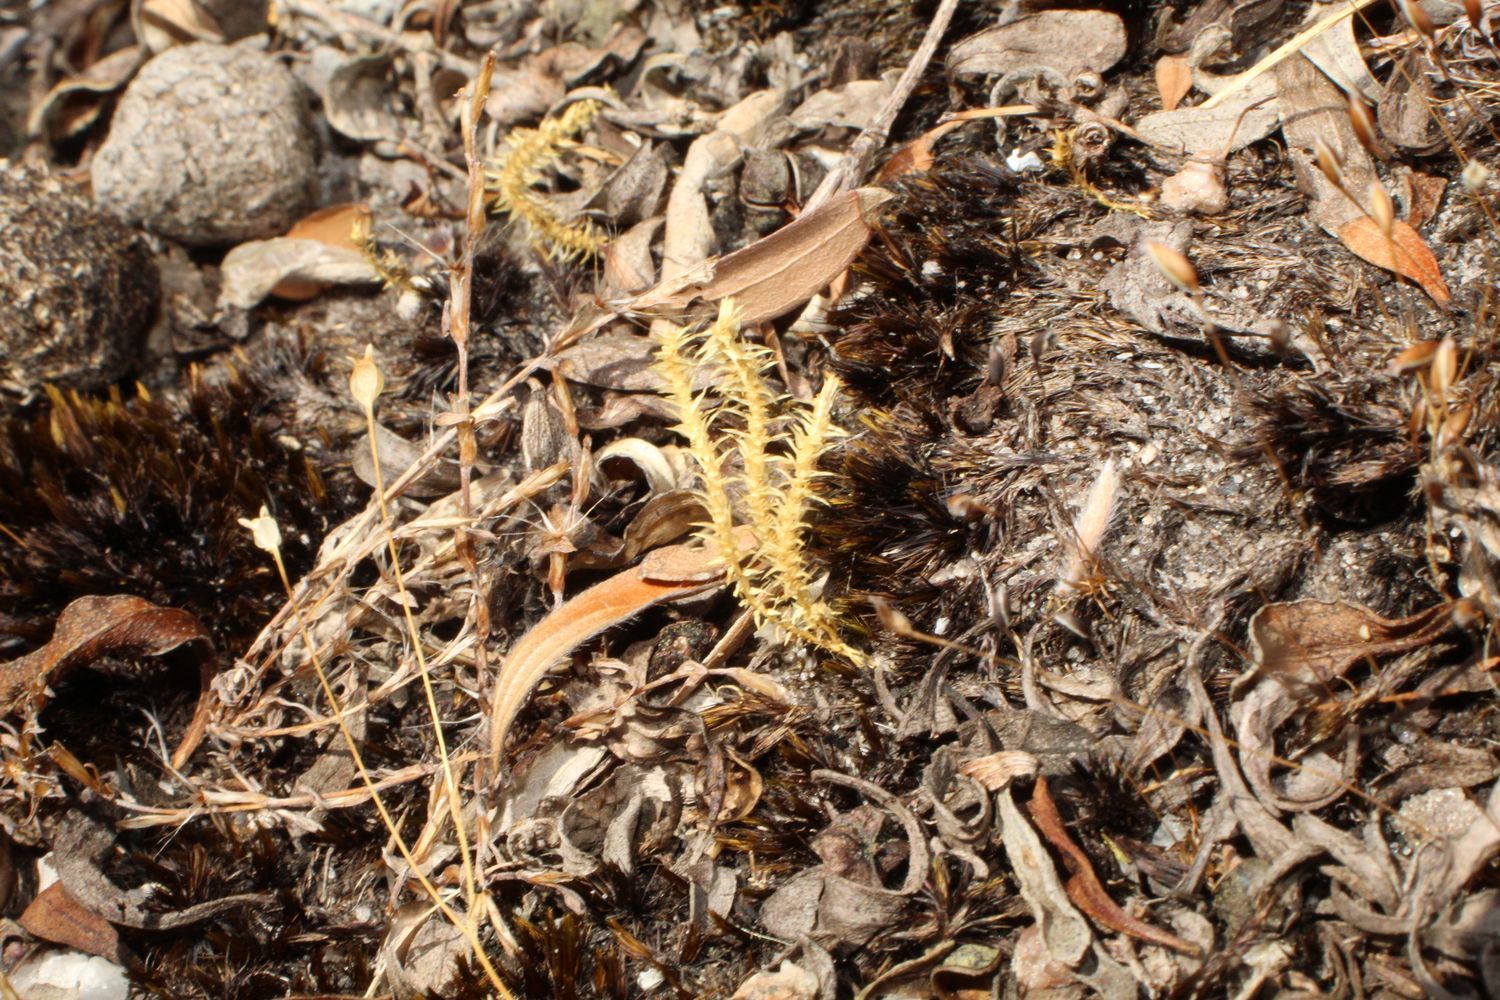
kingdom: Plantae
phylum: Tracheophyta
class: Lycopodiopsida
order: Selaginellales
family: Selaginellaceae
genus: Selaginella
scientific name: Selaginella gracillima
